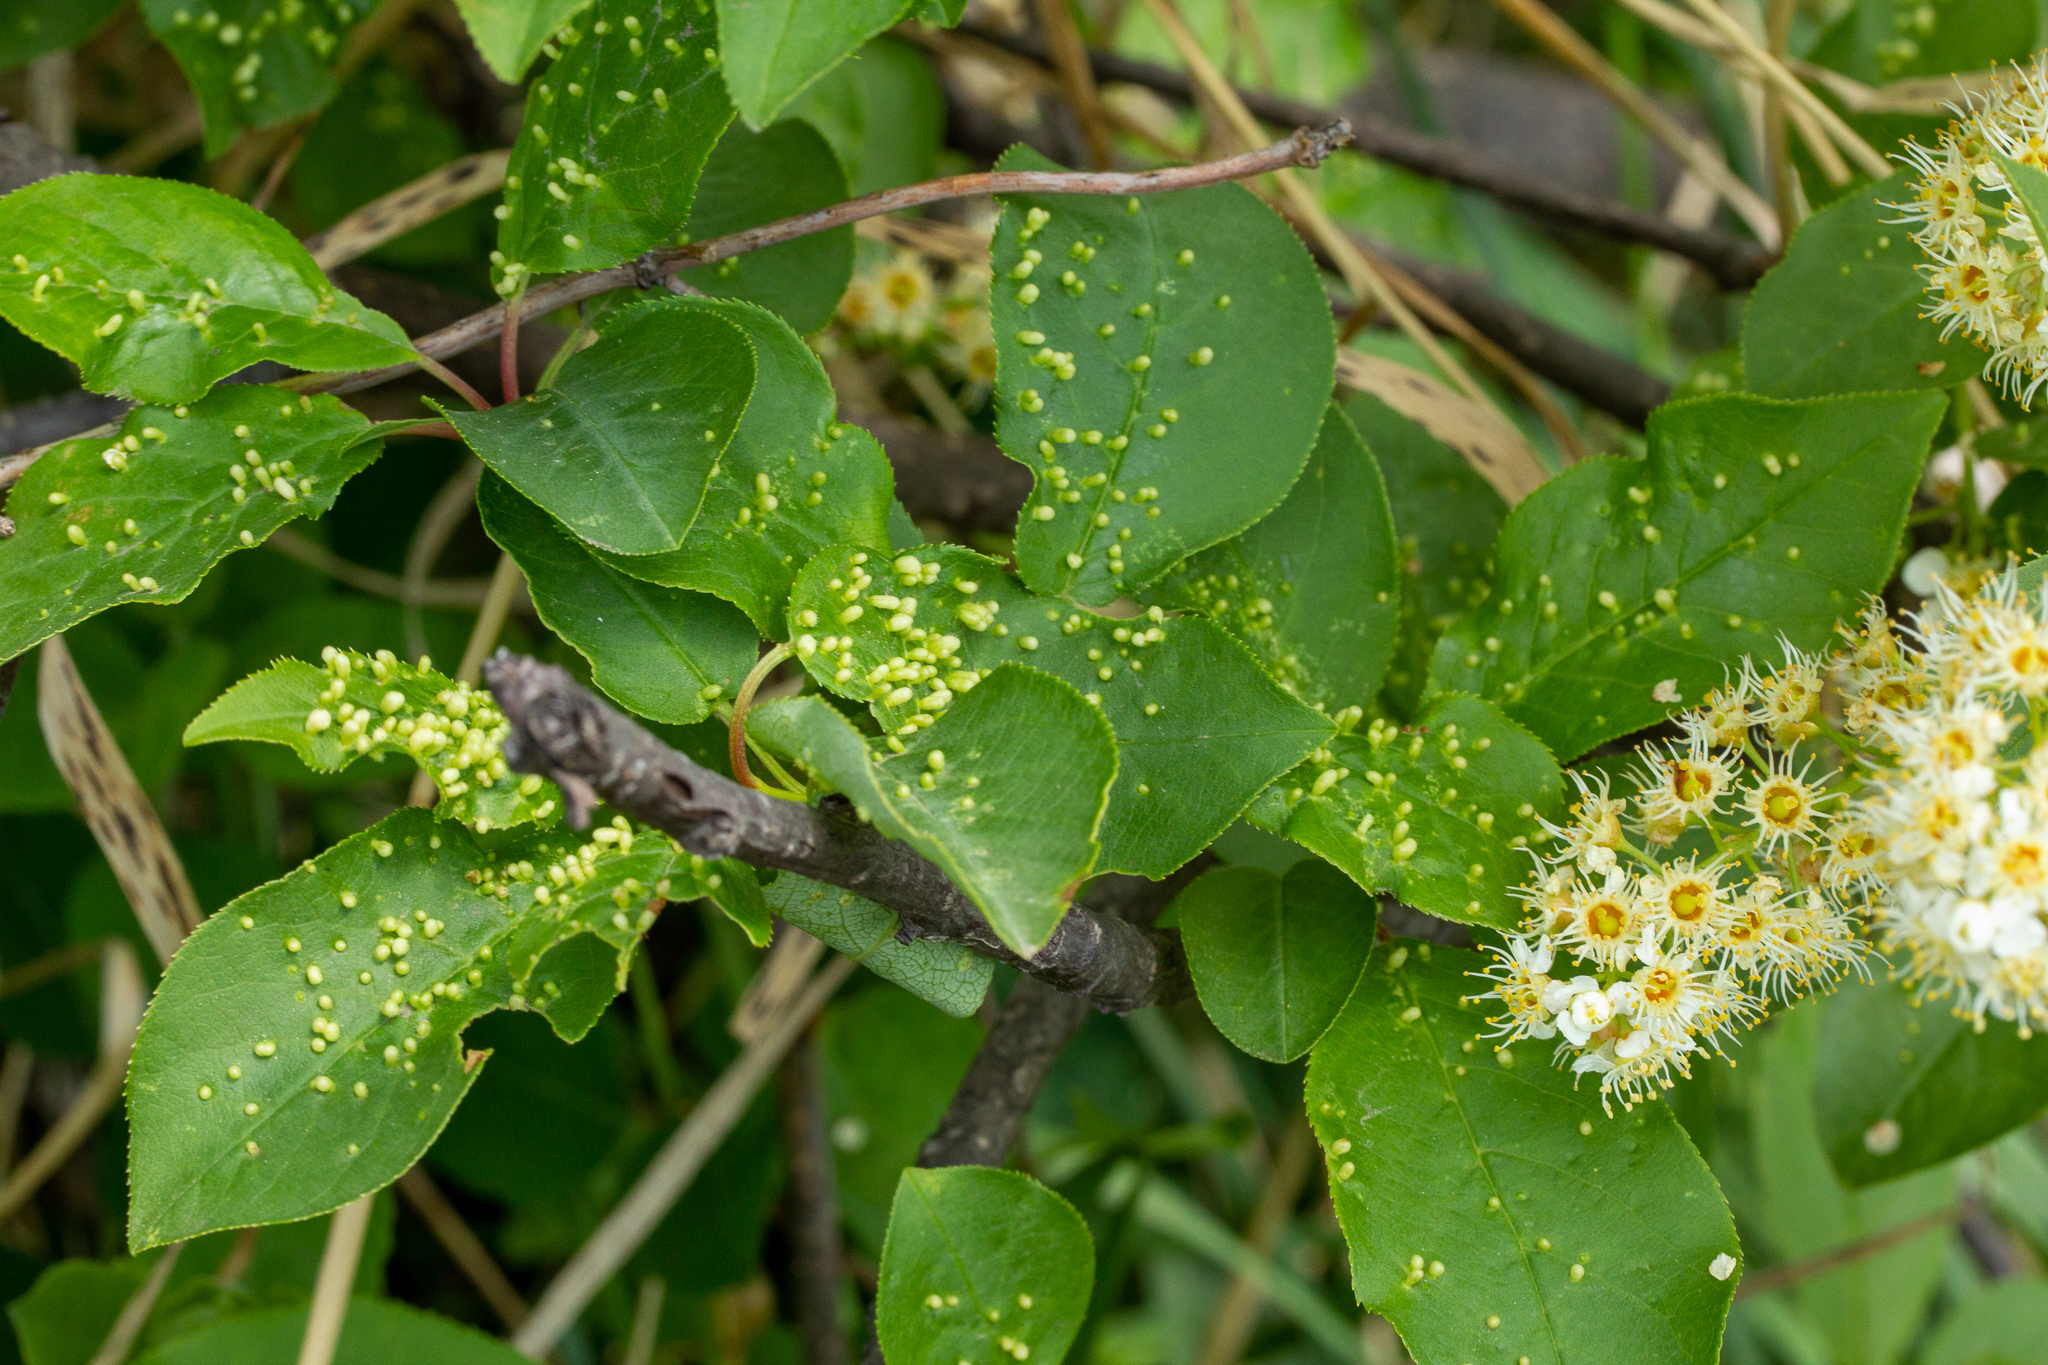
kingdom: Animalia
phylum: Arthropoda
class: Arachnida
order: Trombidiformes
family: Eriophyidae
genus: Eriophyes
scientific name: Eriophyes emarginatae
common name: Plum leaf gall mite
